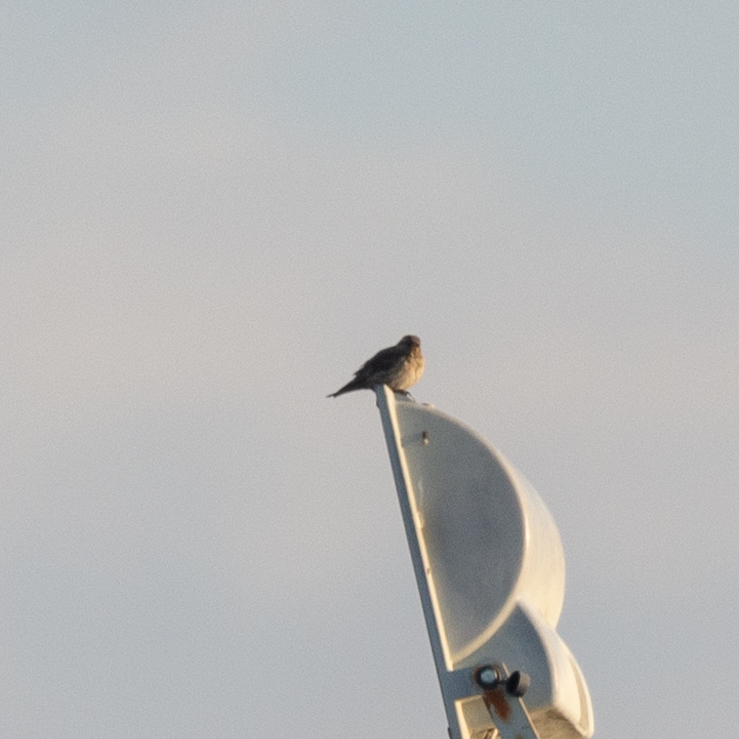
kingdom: Animalia
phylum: Chordata
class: Aves
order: Passeriformes
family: Passeridae
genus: Petronia
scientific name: Petronia petronia
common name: Rock sparrow
